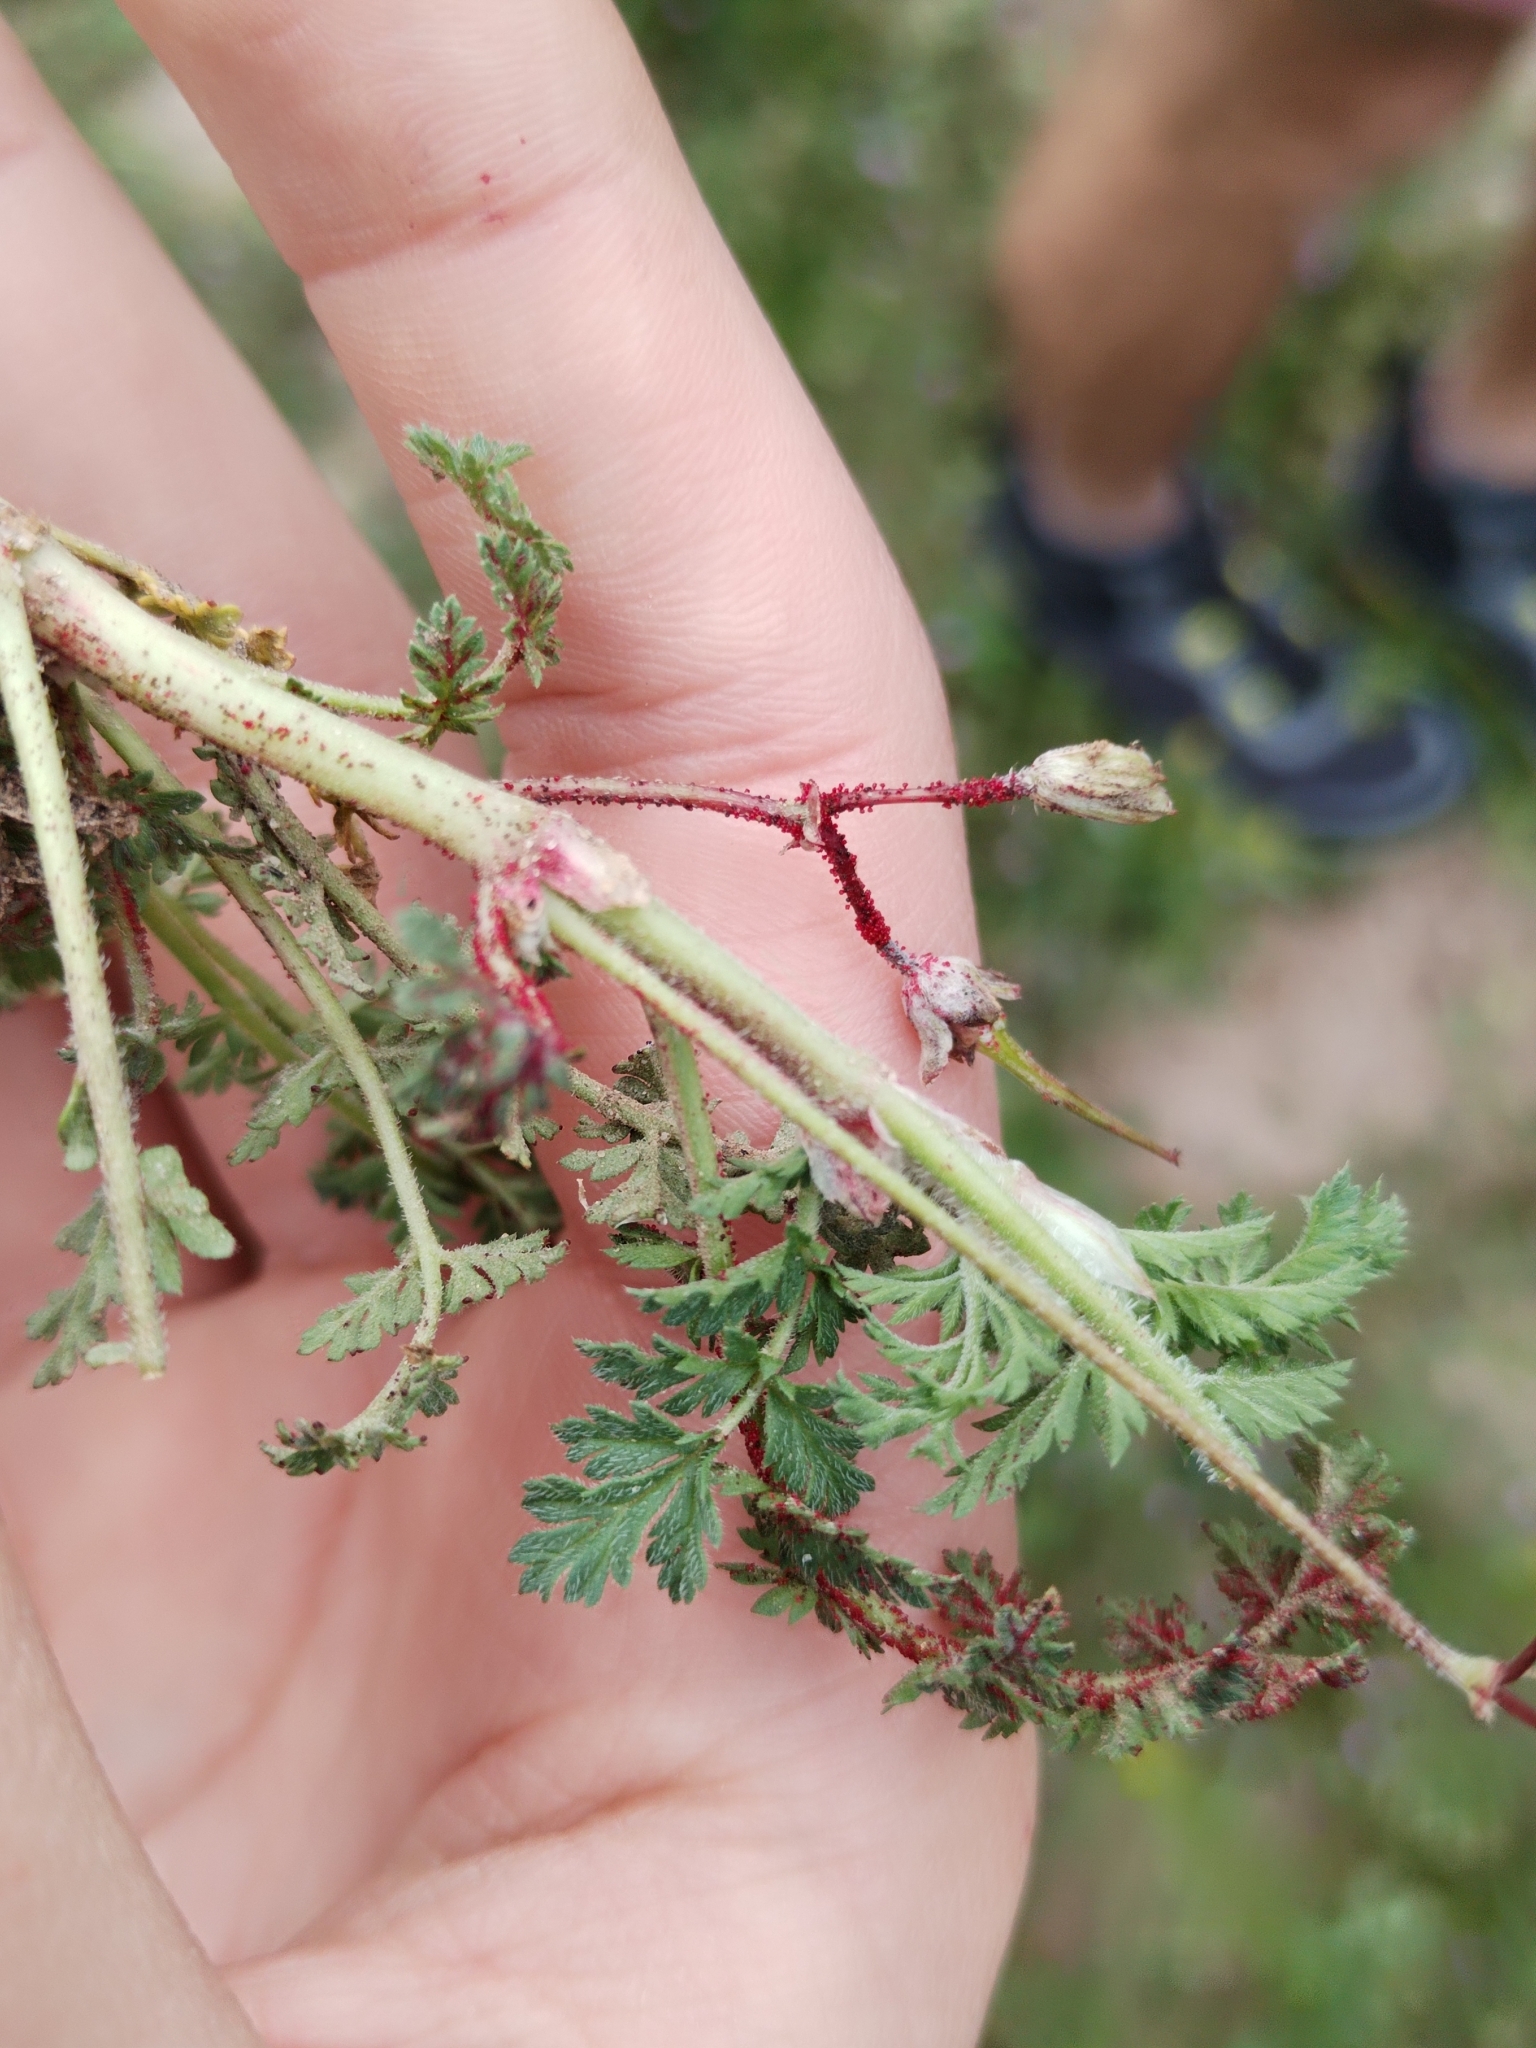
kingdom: Fungi
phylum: Chytridiomycota
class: Chytridiomycetes
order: Chytridiales
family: Synchytriaceae
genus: Synchytrium
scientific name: Synchytrium papillatum
